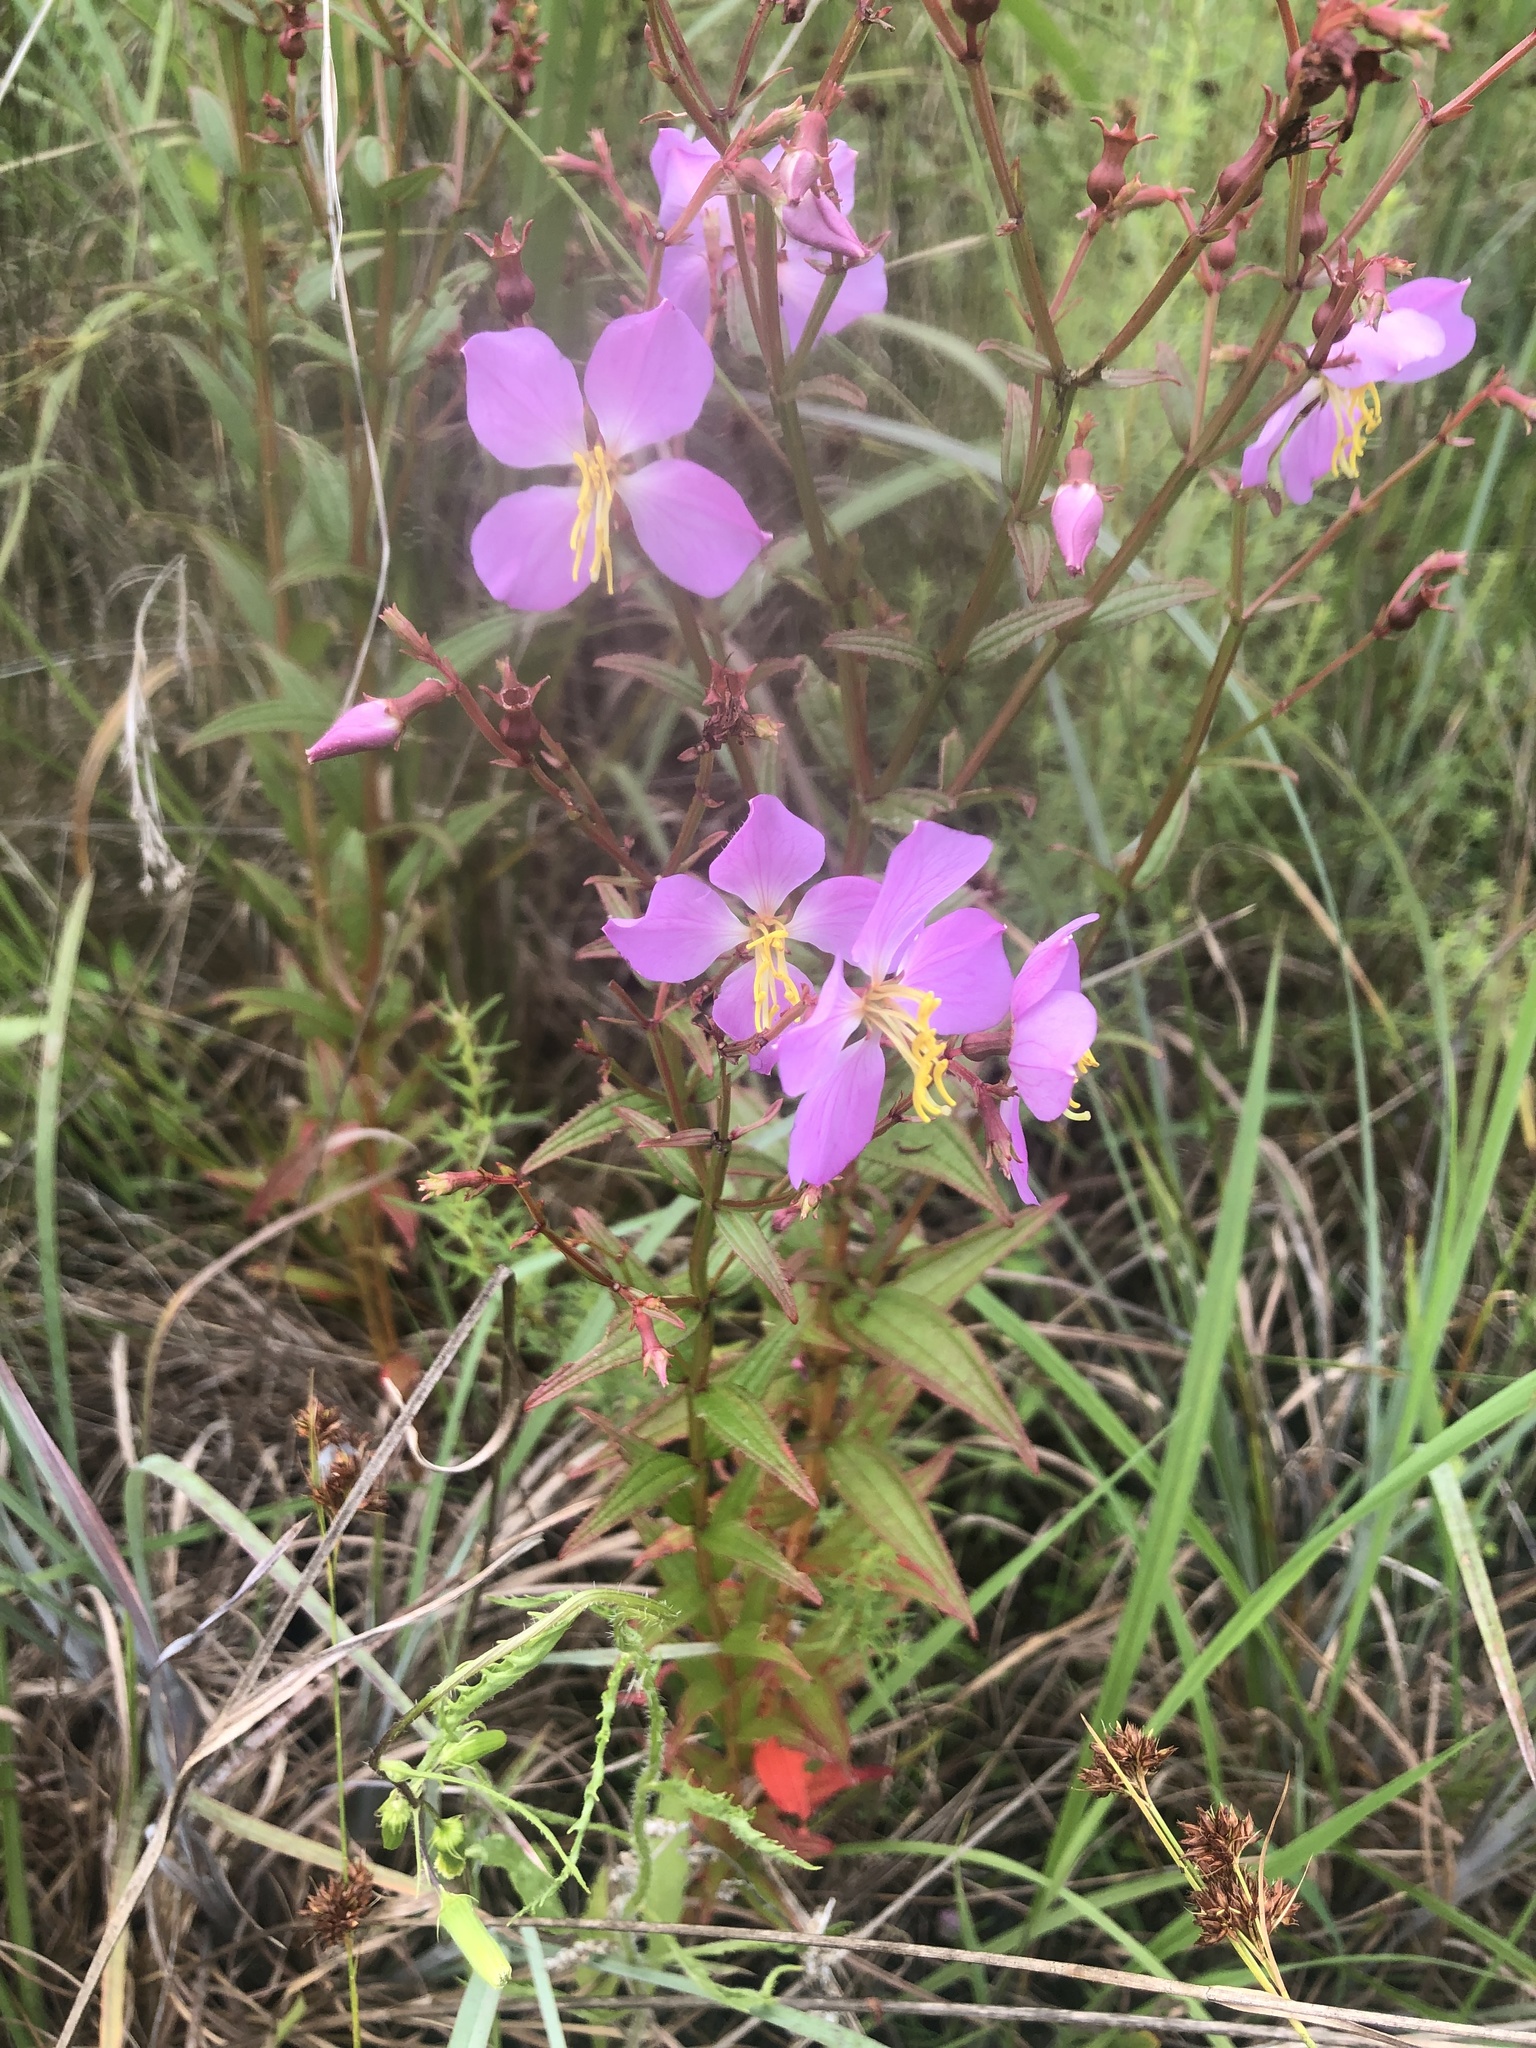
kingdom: Plantae
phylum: Tracheophyta
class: Magnoliopsida
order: Myrtales
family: Melastomataceae
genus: Rhexia
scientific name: Rhexia virginica
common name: Common meadow beauty
